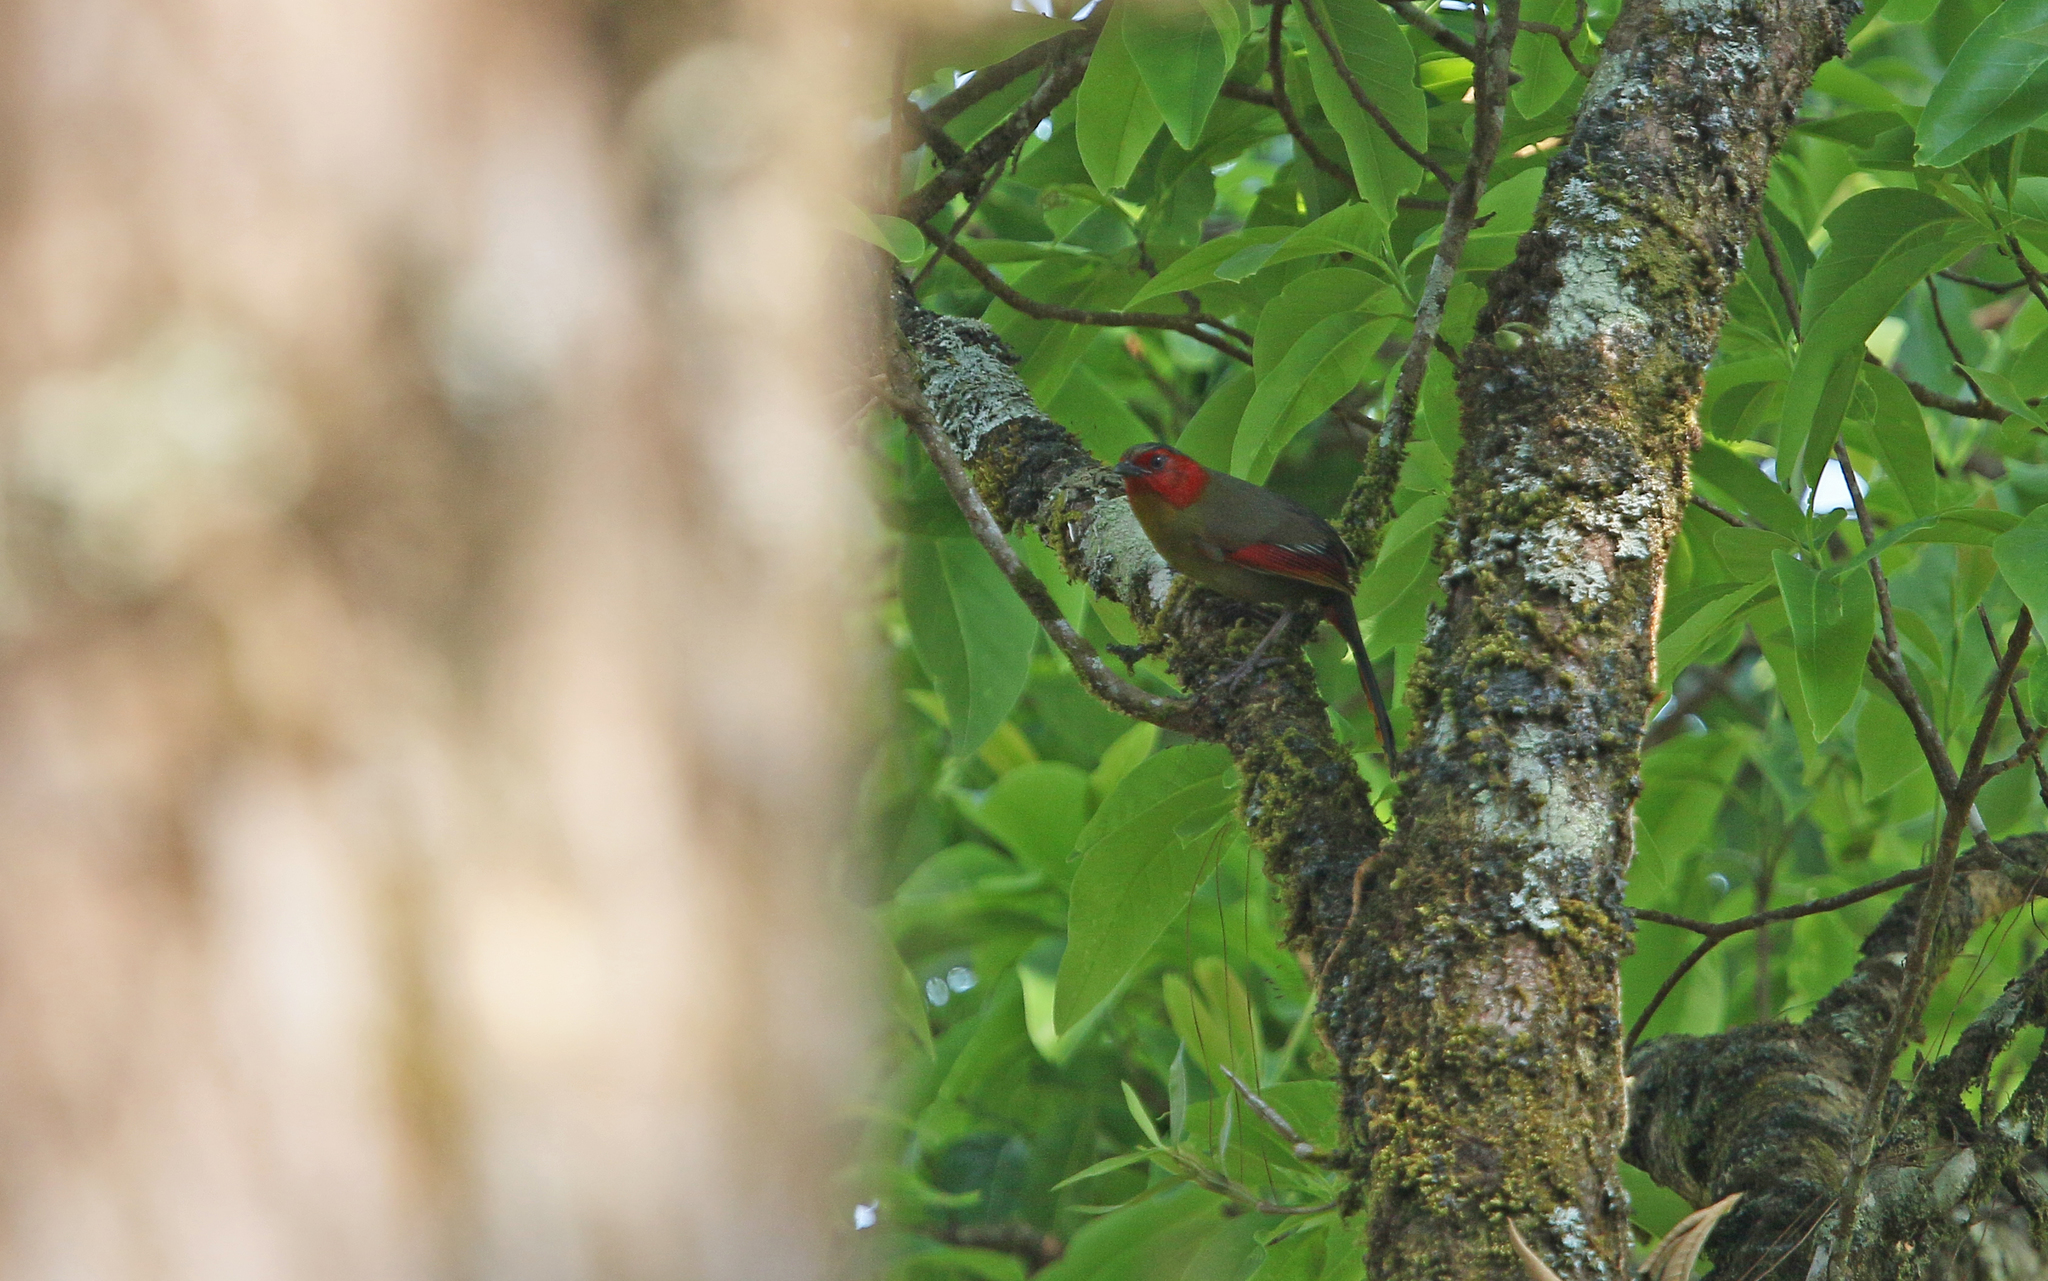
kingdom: Animalia
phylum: Chordata
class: Aves
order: Passeriformes
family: Leiothrichidae
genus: Liocichla
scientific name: Liocichla ripponi
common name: Scarlet-faced liocichla
